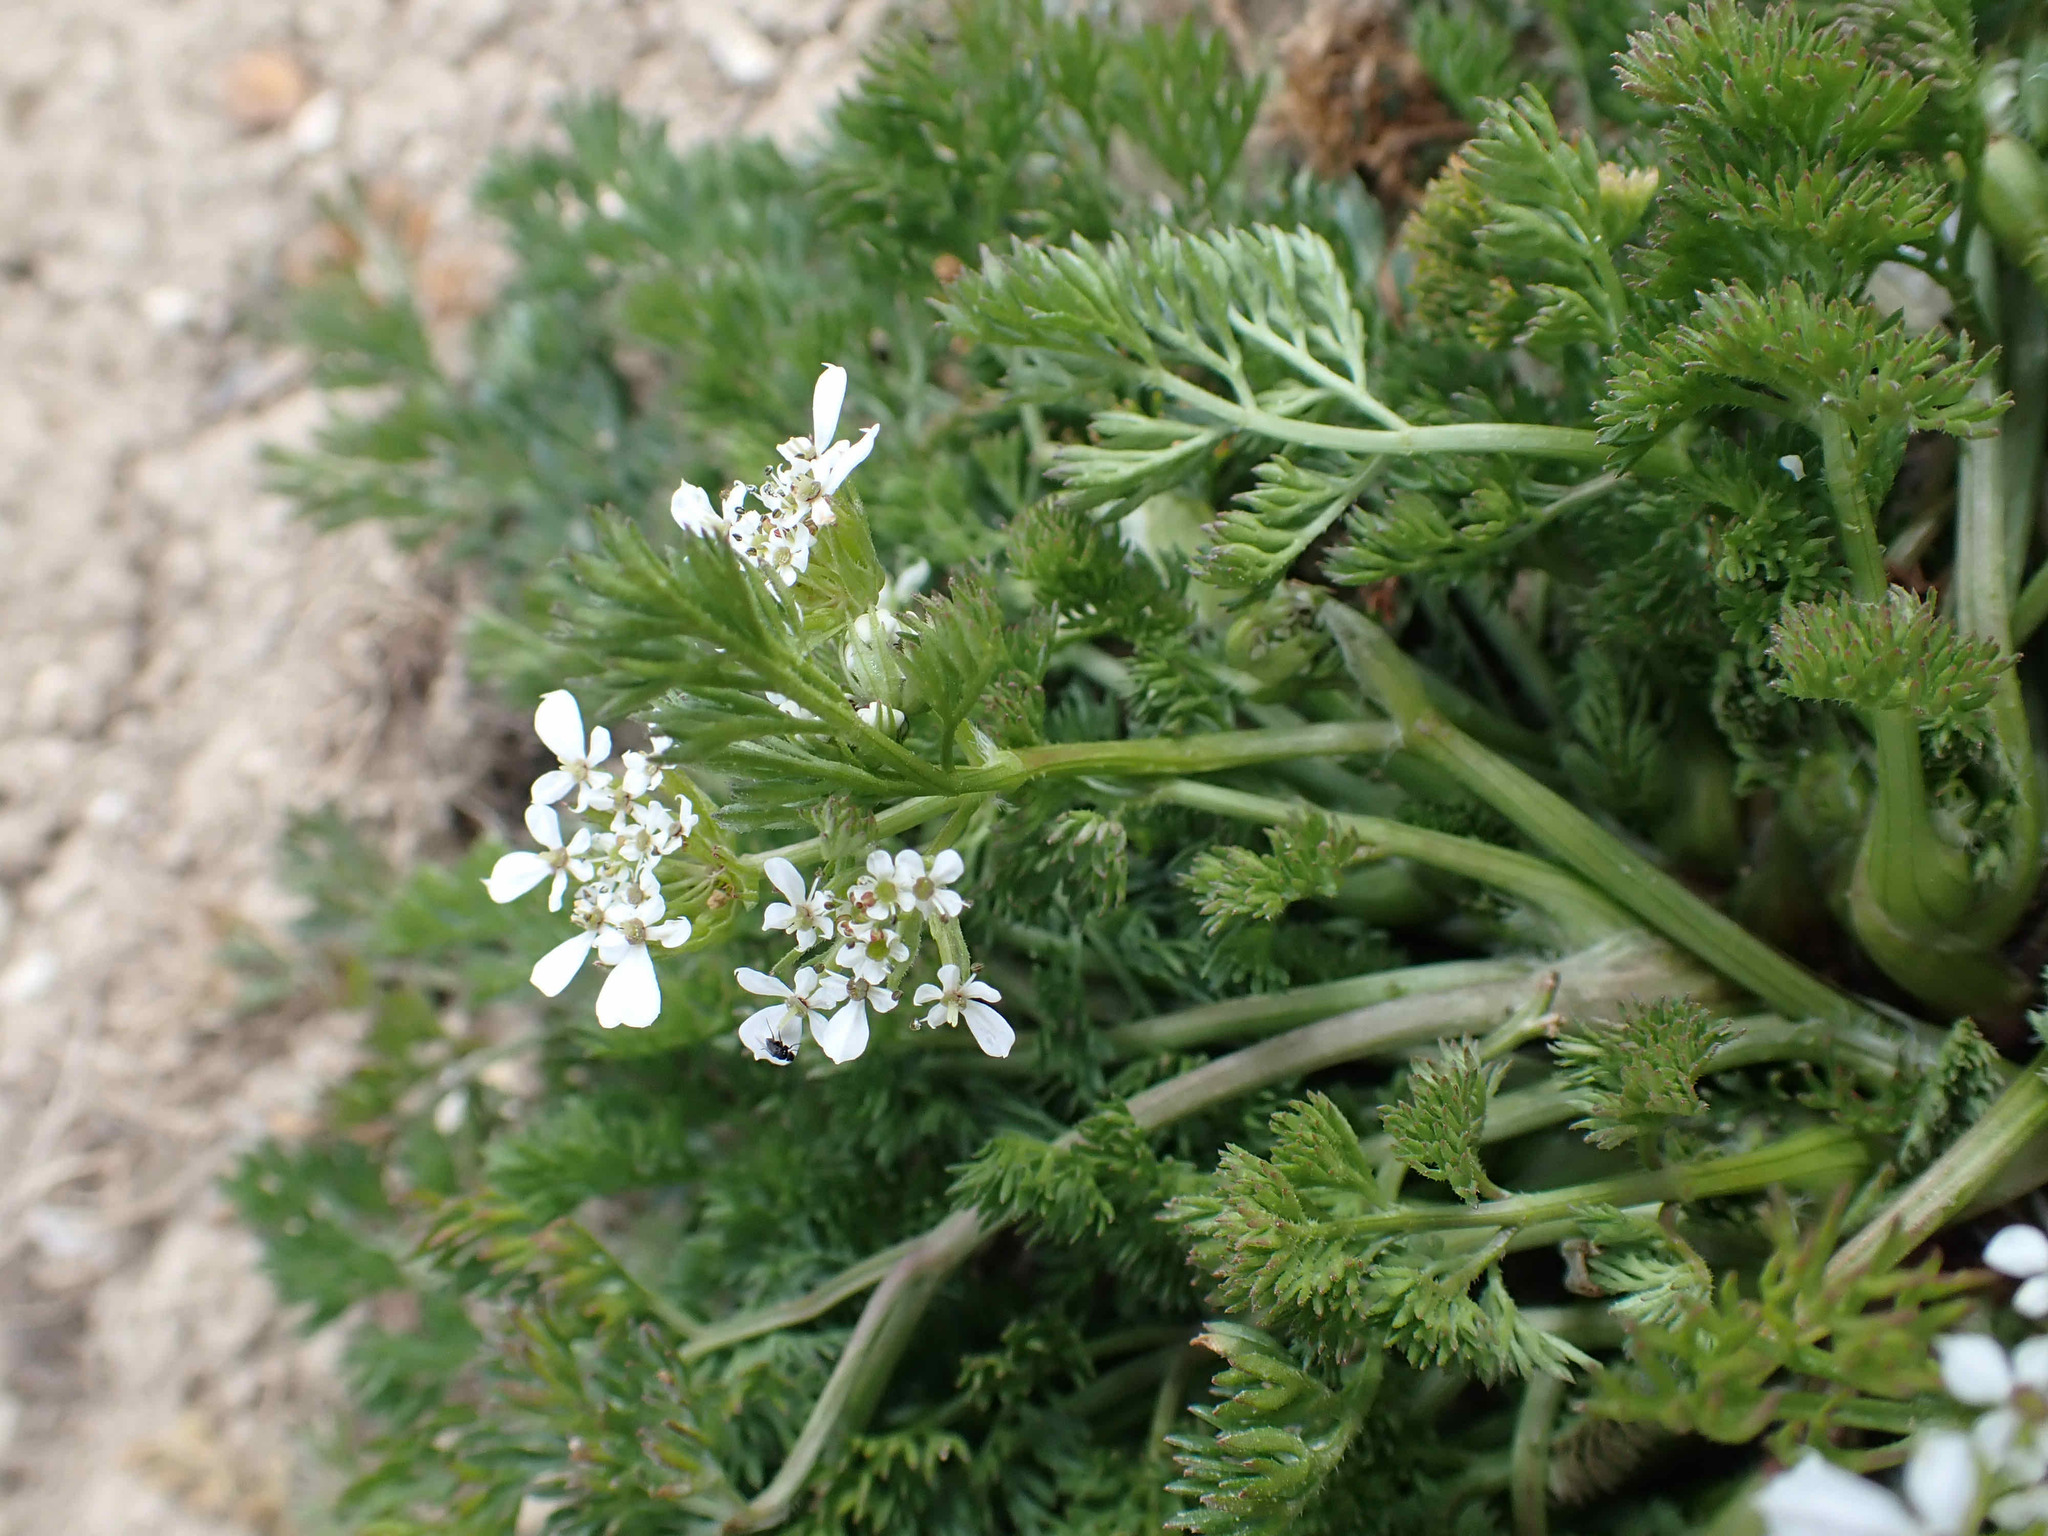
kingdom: Plantae
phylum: Tracheophyta
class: Magnoliopsida
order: Apiales
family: Apiaceae
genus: Scandix
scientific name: Scandix pecten-veneris
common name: Shepherd's-needle
